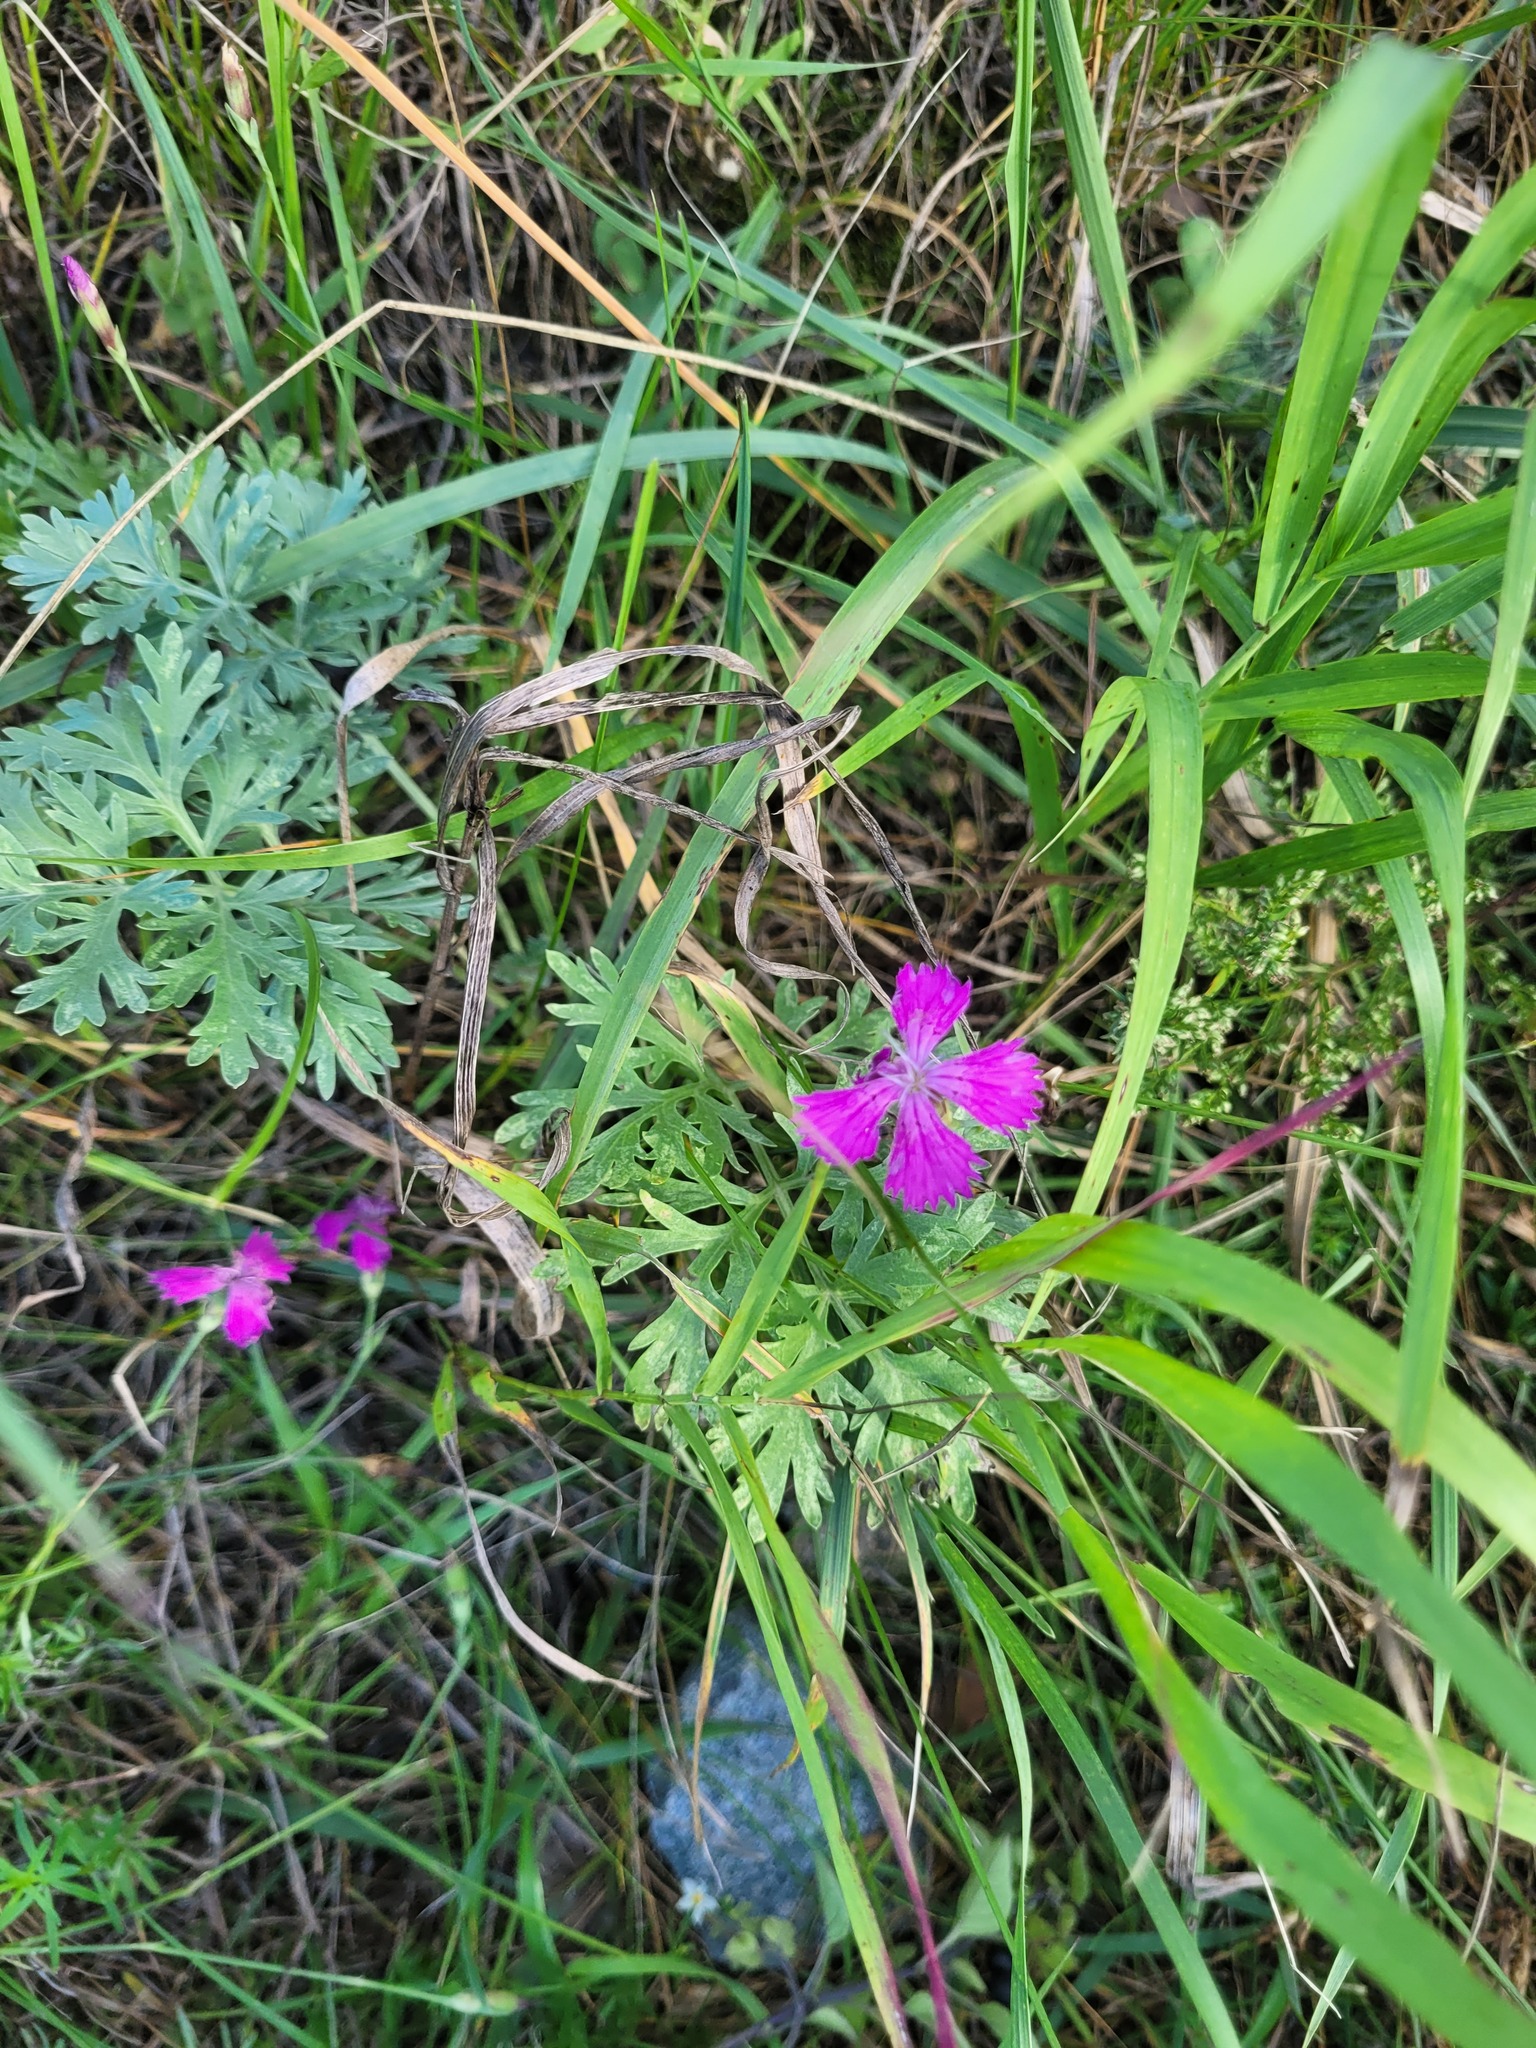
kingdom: Plantae
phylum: Tracheophyta
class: Magnoliopsida
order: Caryophyllales
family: Caryophyllaceae
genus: Dianthus
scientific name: Dianthus chinensis
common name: Rainbow pink
